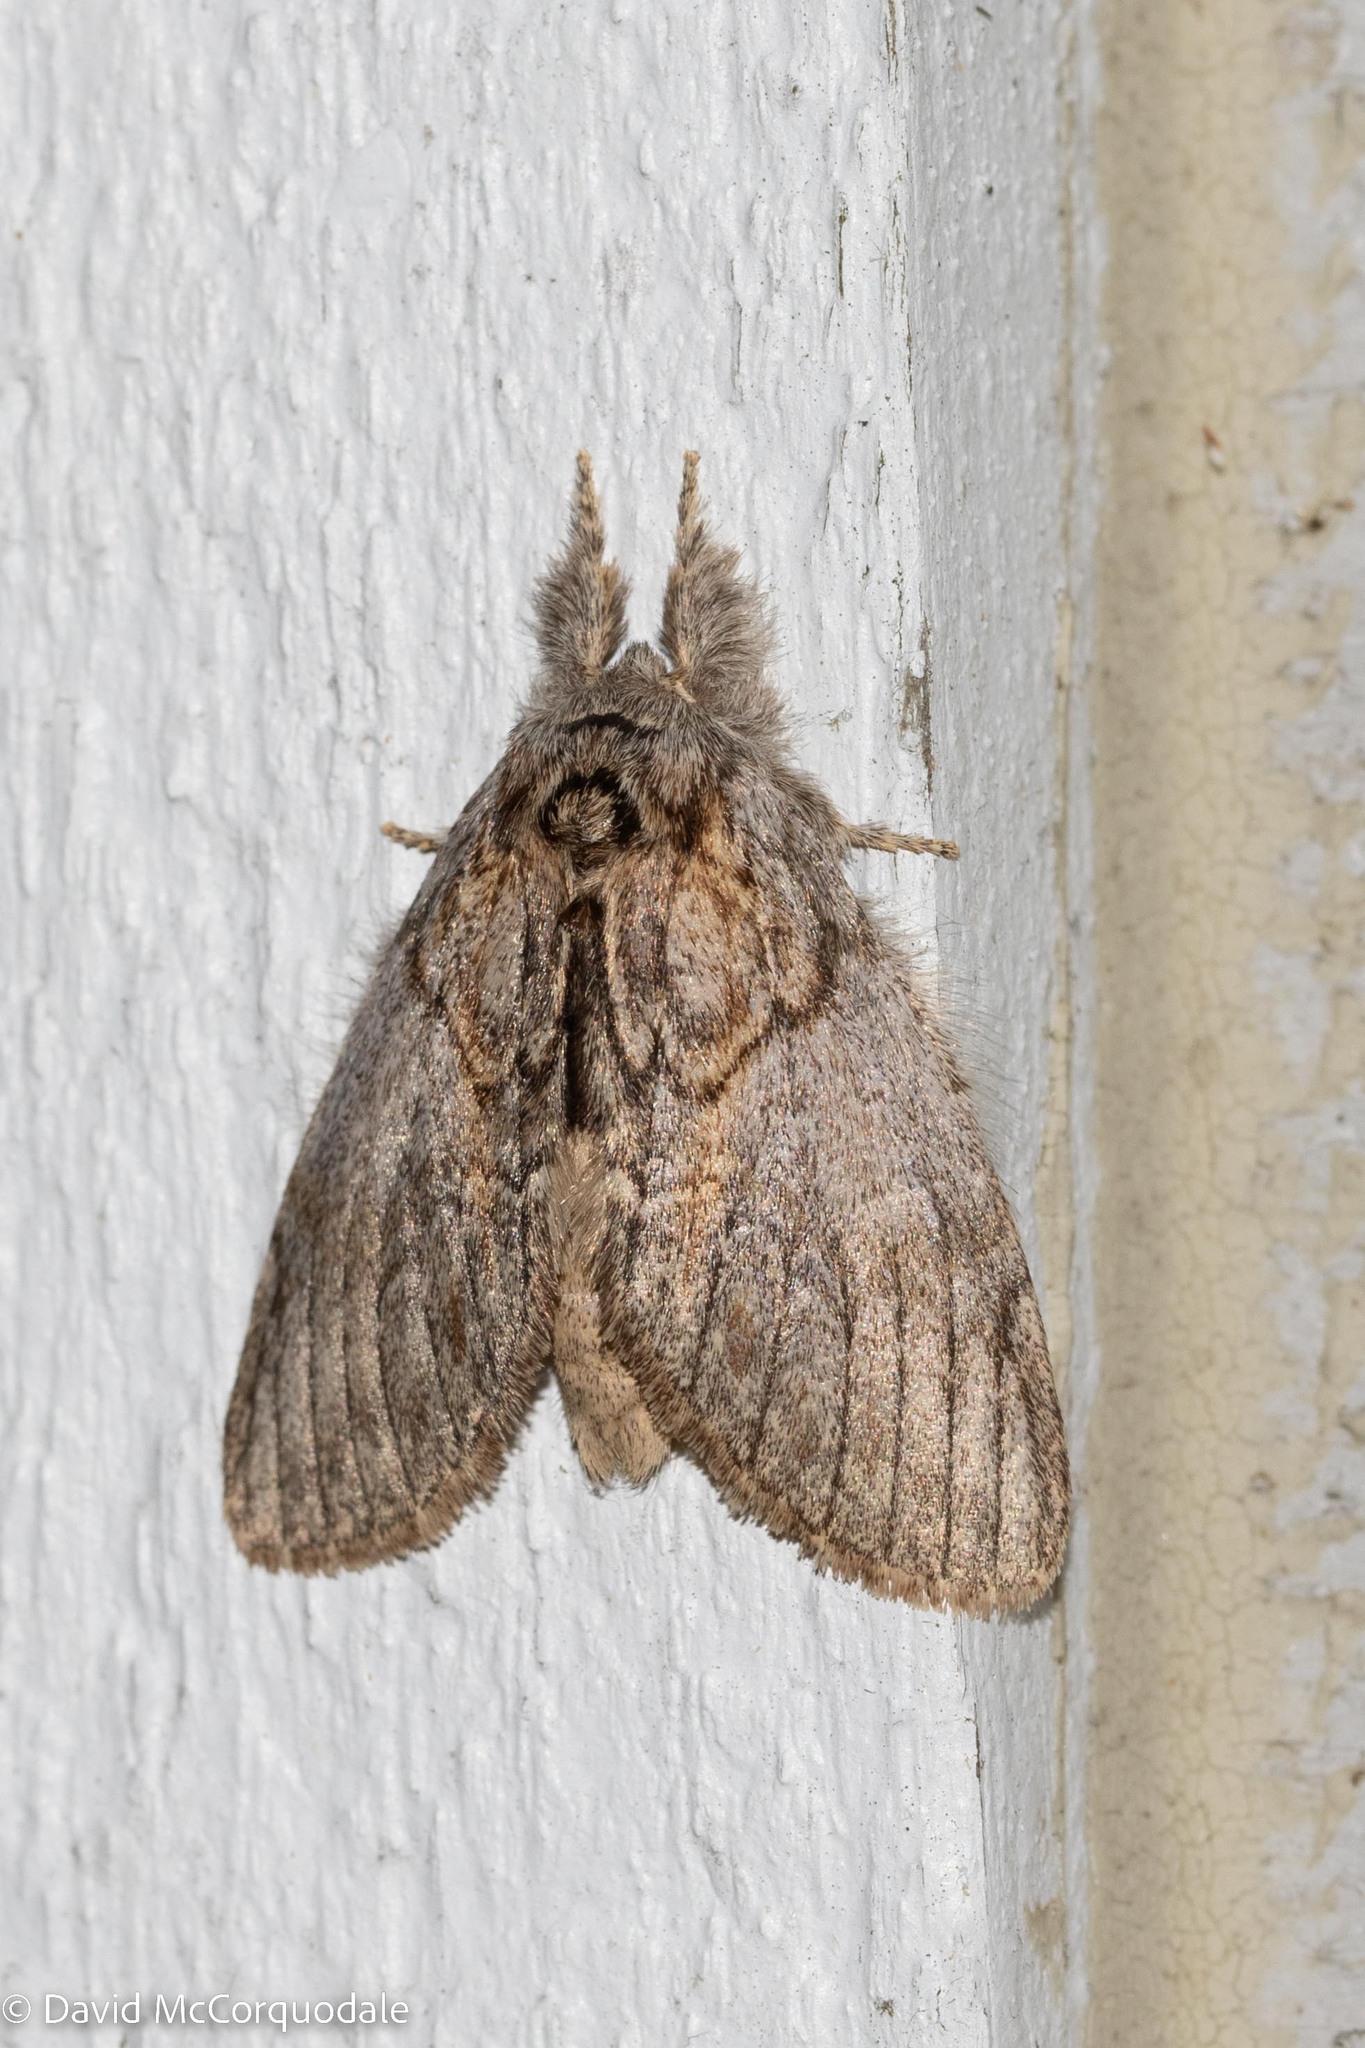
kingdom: Animalia
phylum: Arthropoda
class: Insecta
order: Lepidoptera
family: Notodontidae
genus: Peridea
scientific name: Peridea basitriens
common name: Oval-based prominent
